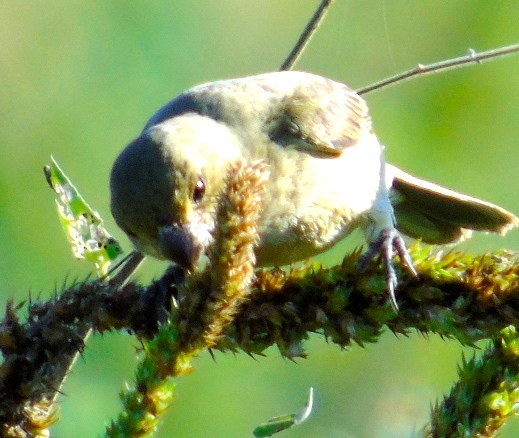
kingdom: Animalia
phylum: Chordata
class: Aves
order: Passeriformes
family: Thraupidae
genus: Sporophila
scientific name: Sporophila torqueola
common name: White-collared seedeater
